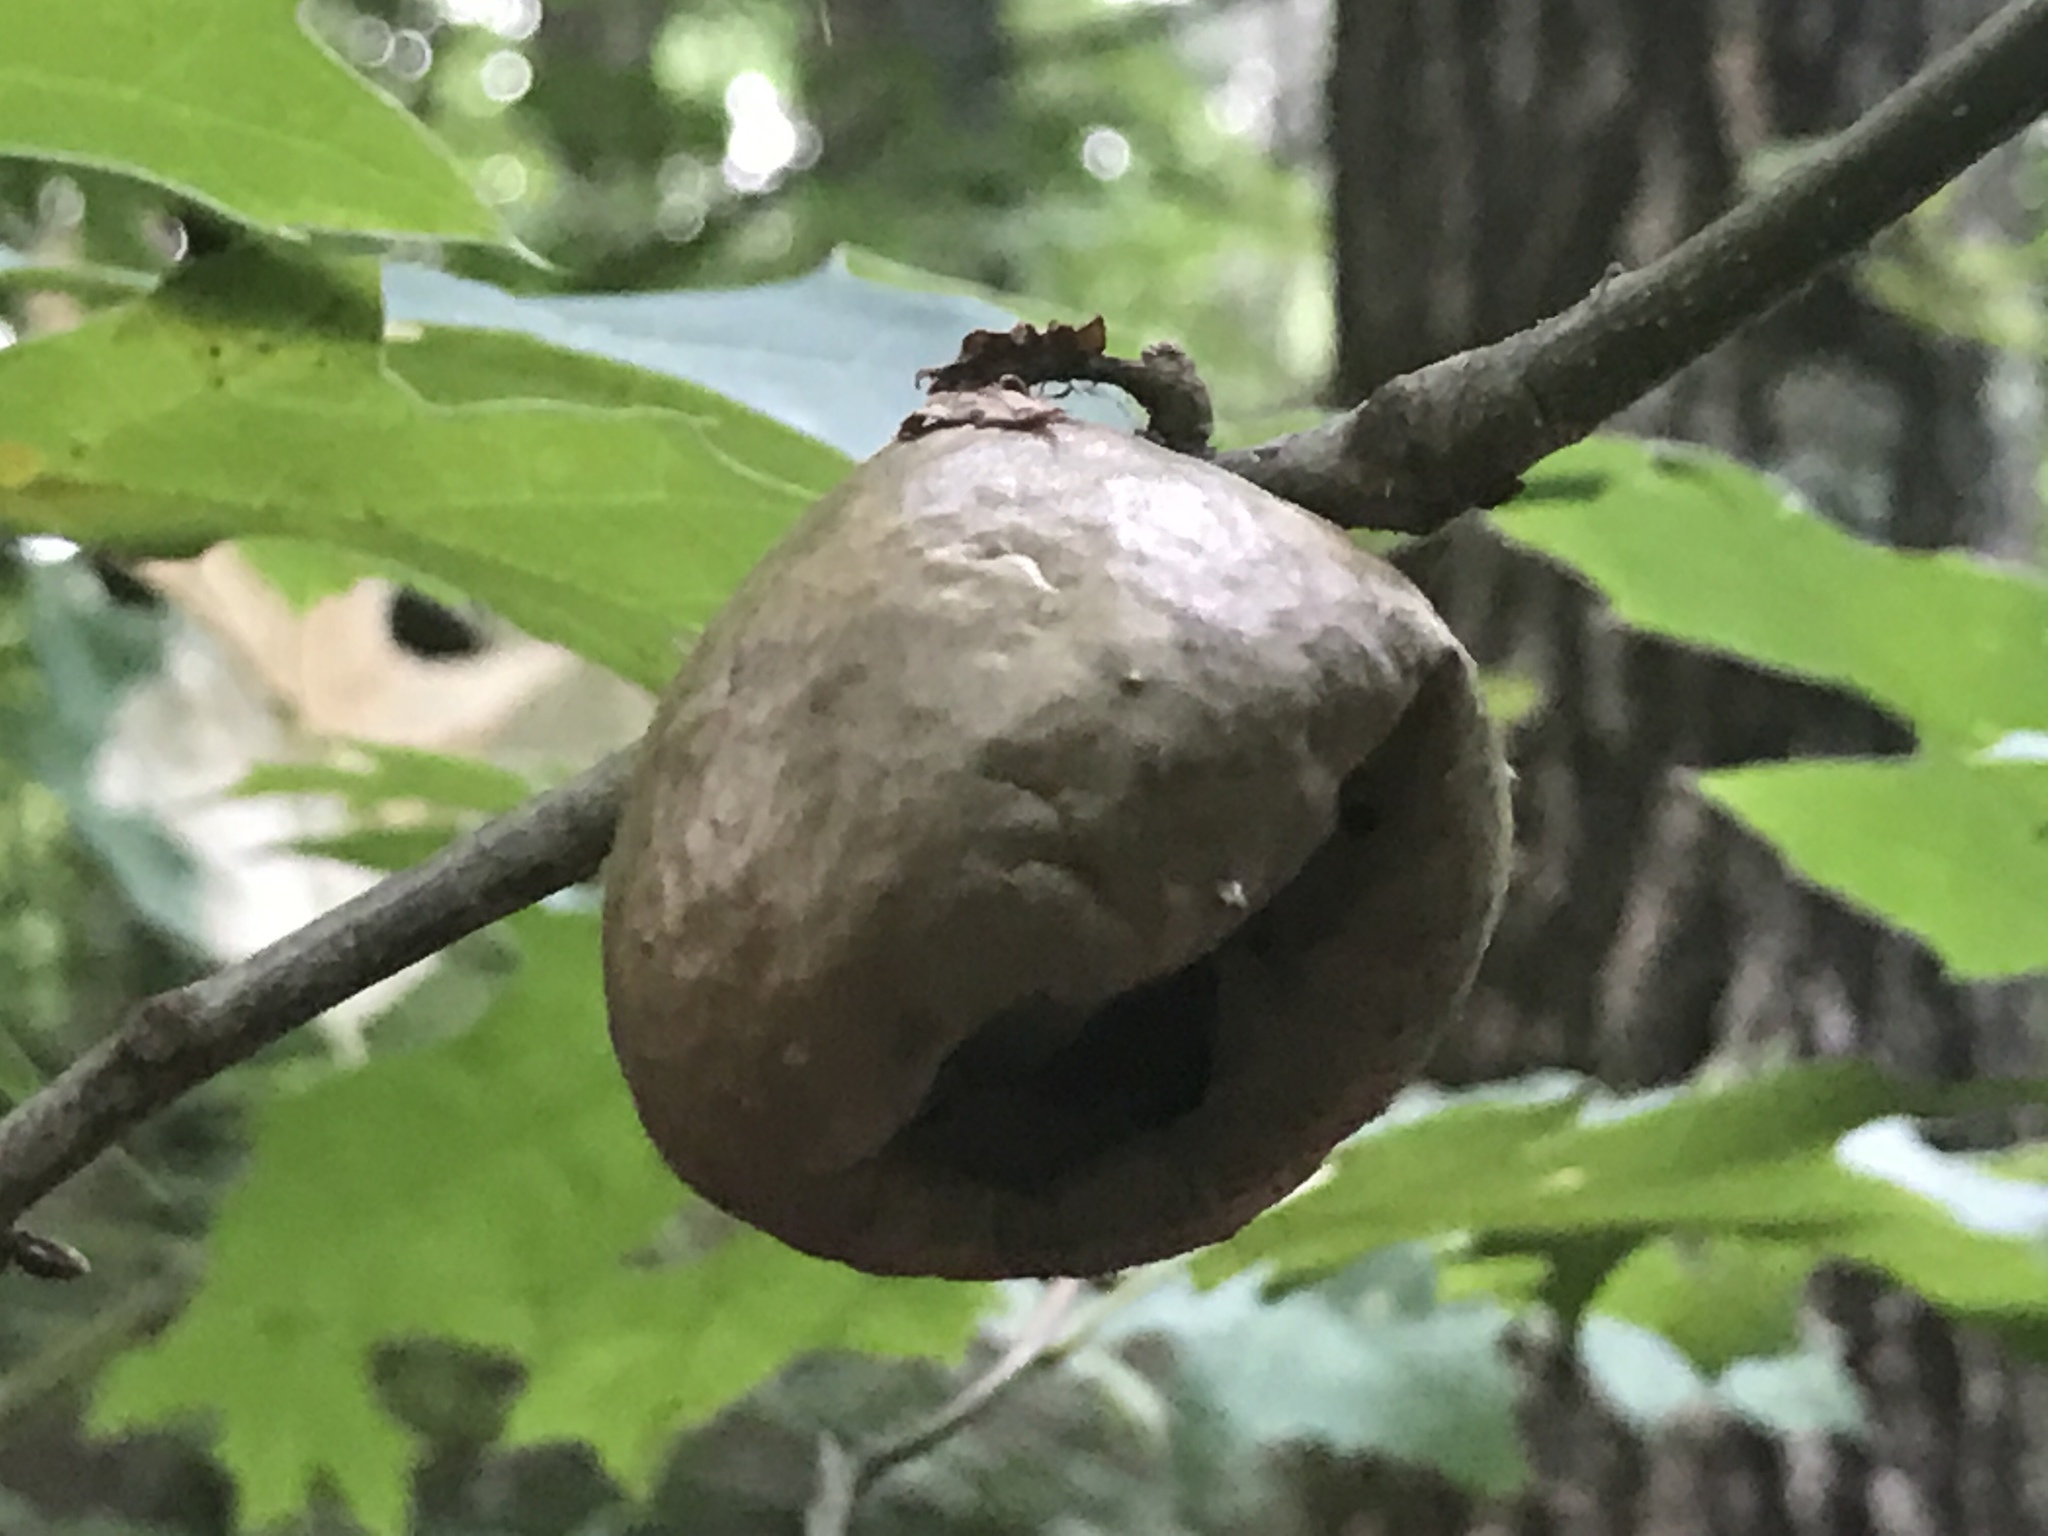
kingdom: Animalia
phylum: Arthropoda
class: Insecta
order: Hymenoptera
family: Cynipidae
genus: Amphibolips
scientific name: Amphibolips
